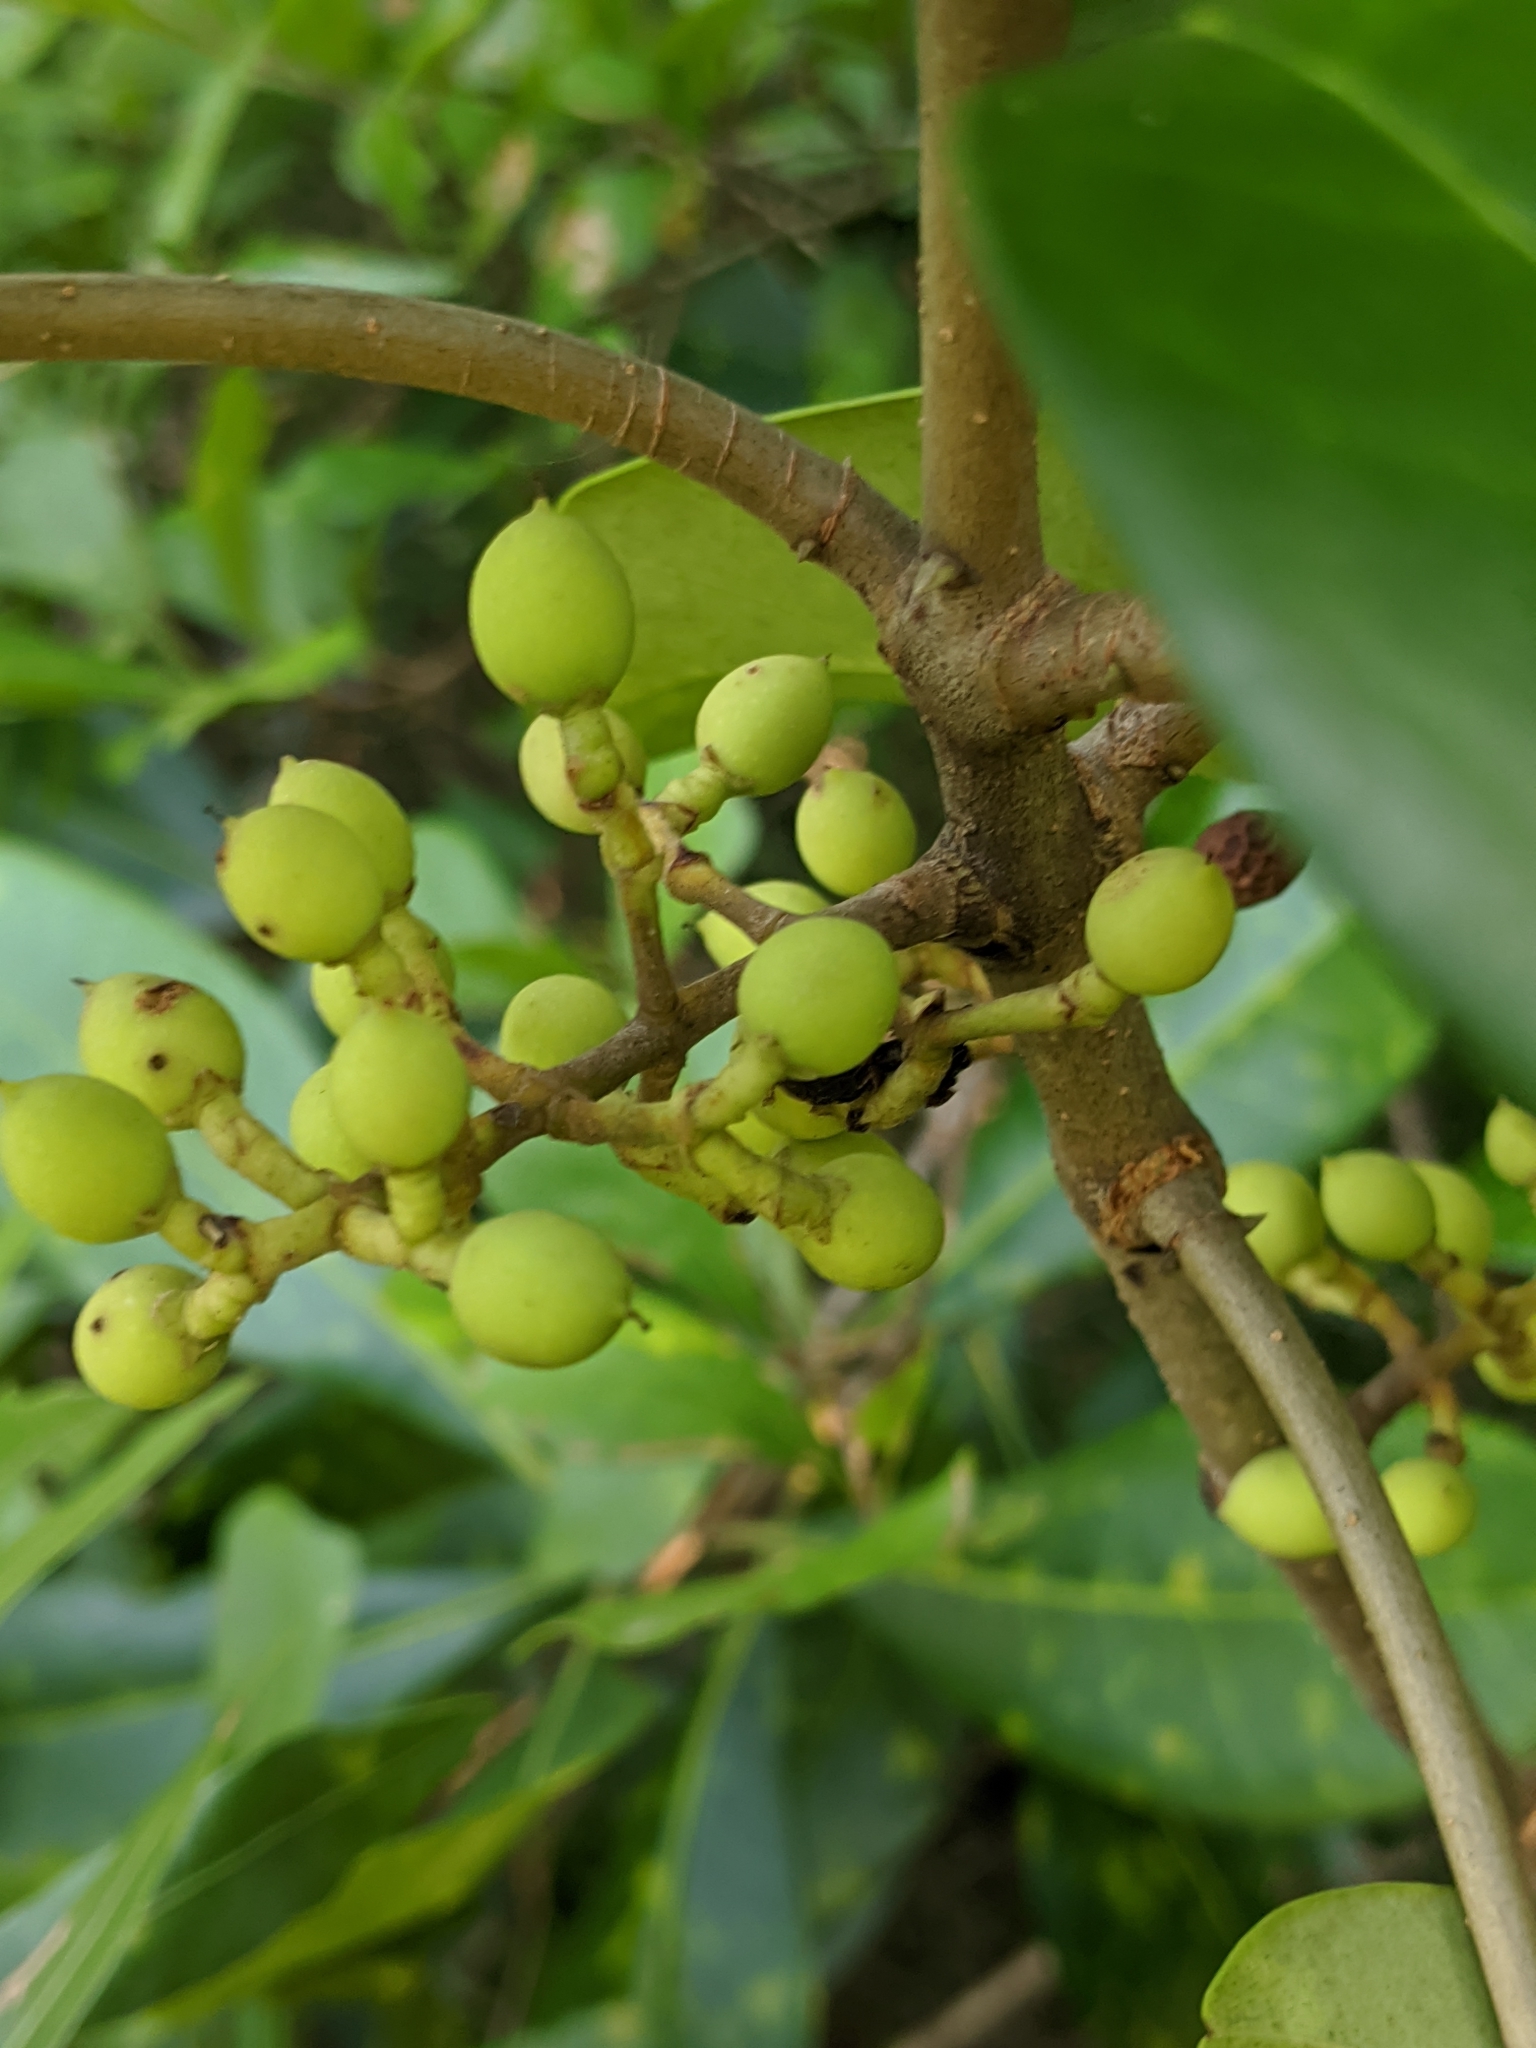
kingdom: Plantae
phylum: Tracheophyta
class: Magnoliopsida
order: Lamiales
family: Oleaceae
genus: Cartrema
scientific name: Cartrema americana
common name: Devilwood
